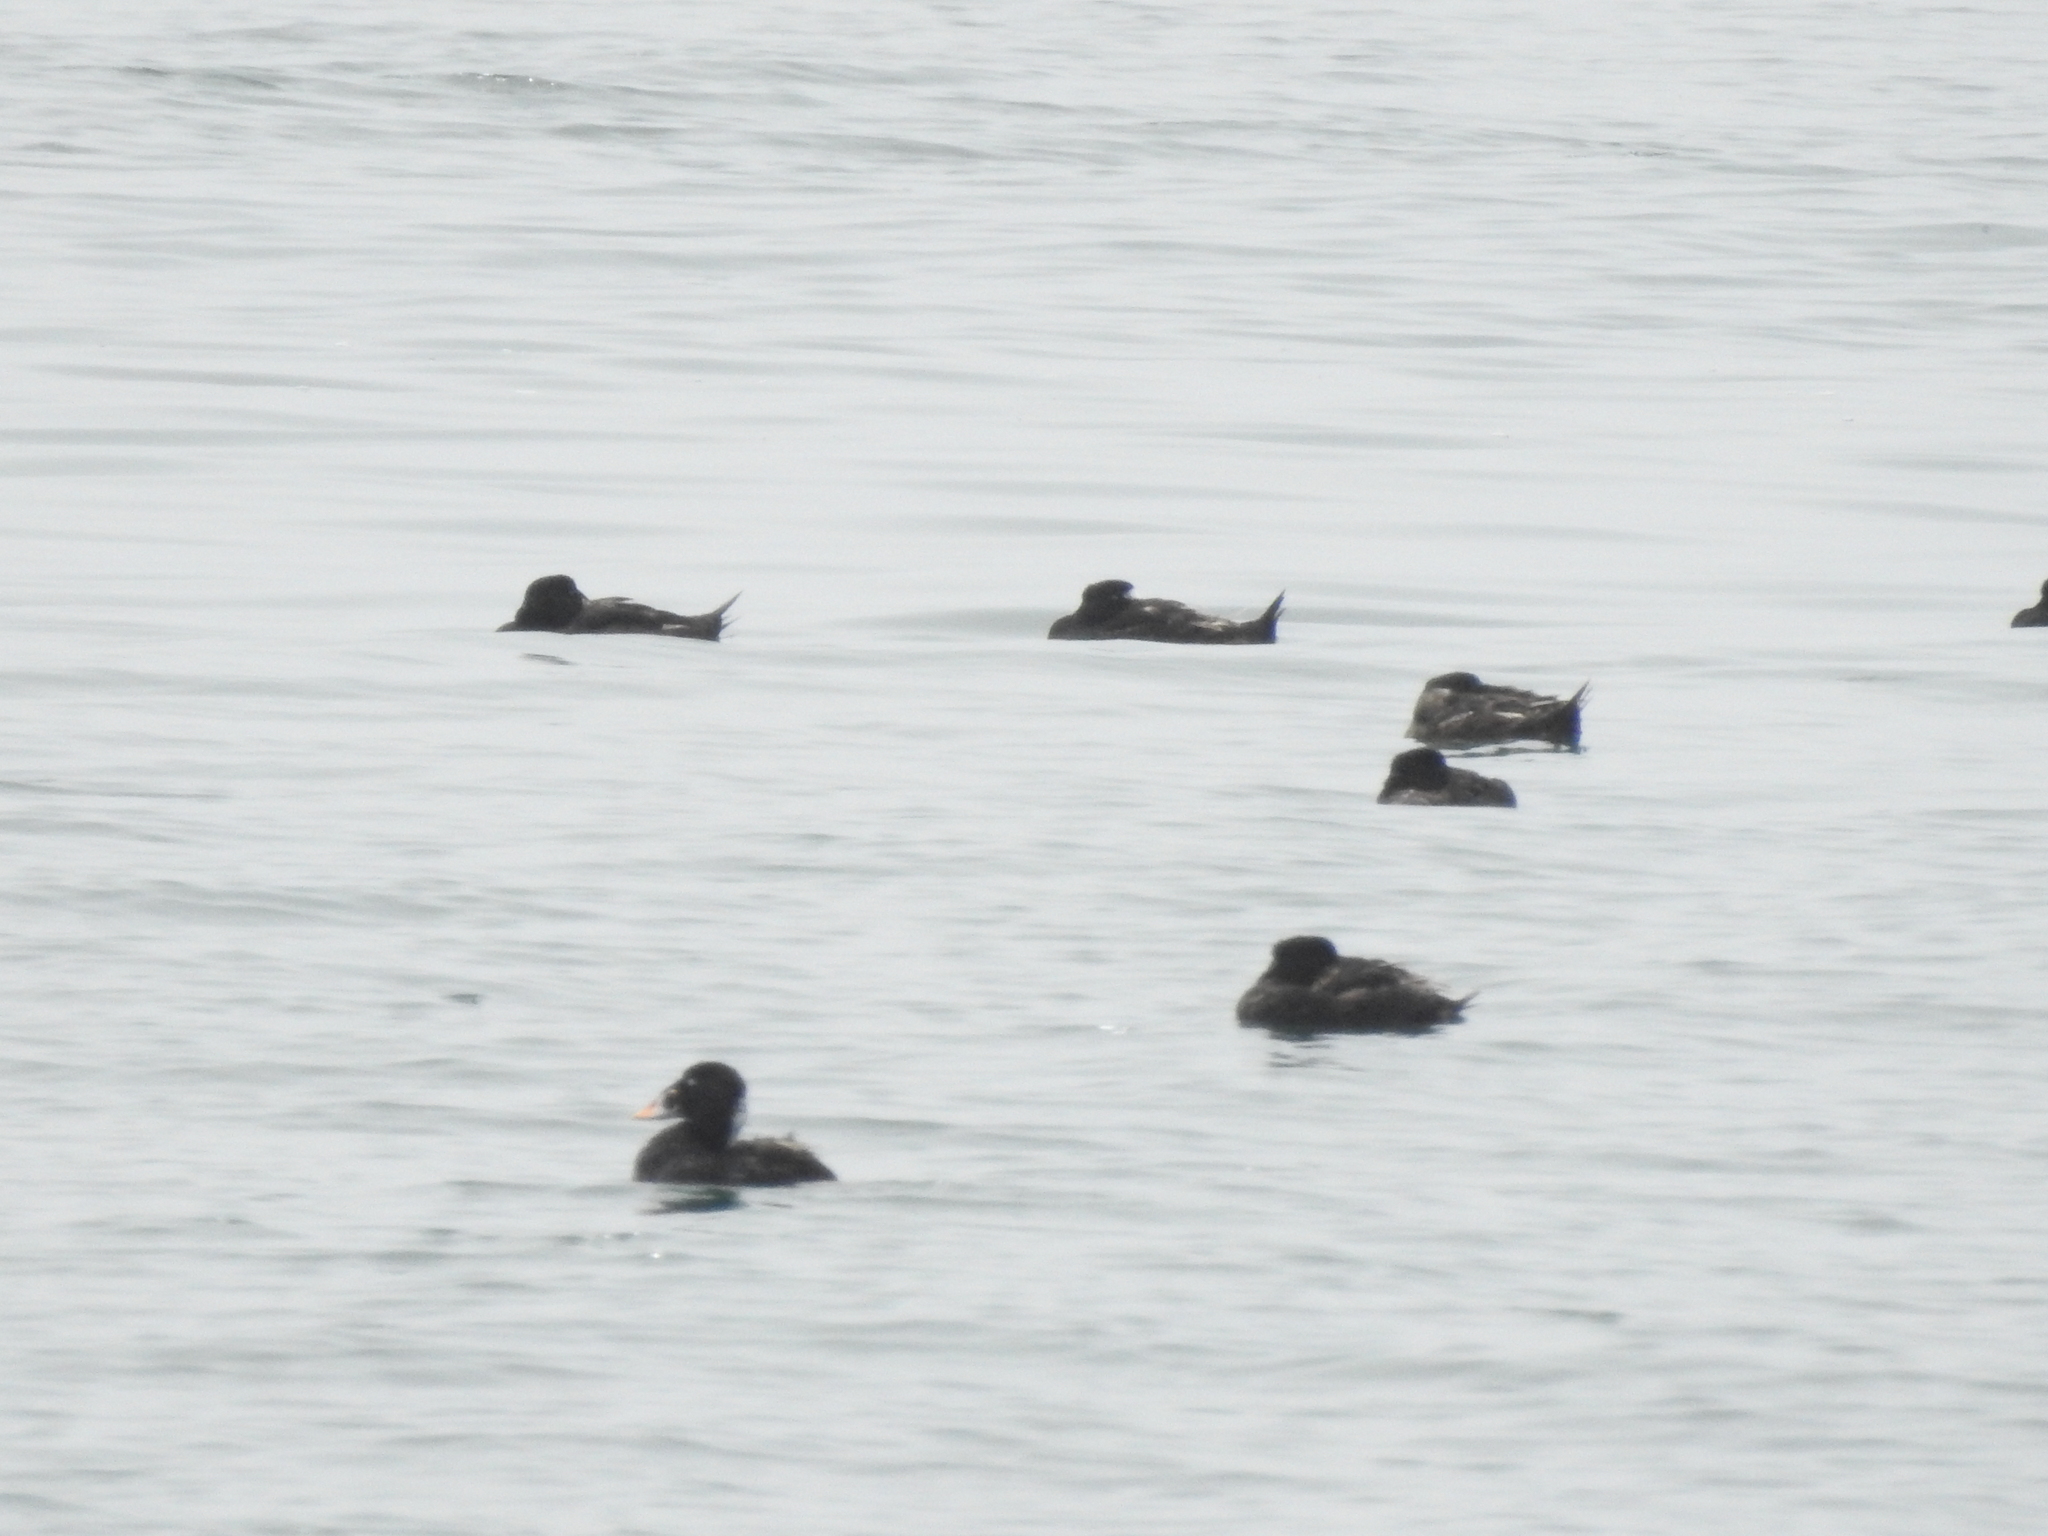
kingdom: Animalia
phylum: Chordata
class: Aves
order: Anseriformes
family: Anatidae
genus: Melanitta
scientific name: Melanitta perspicillata
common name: Surf scoter
